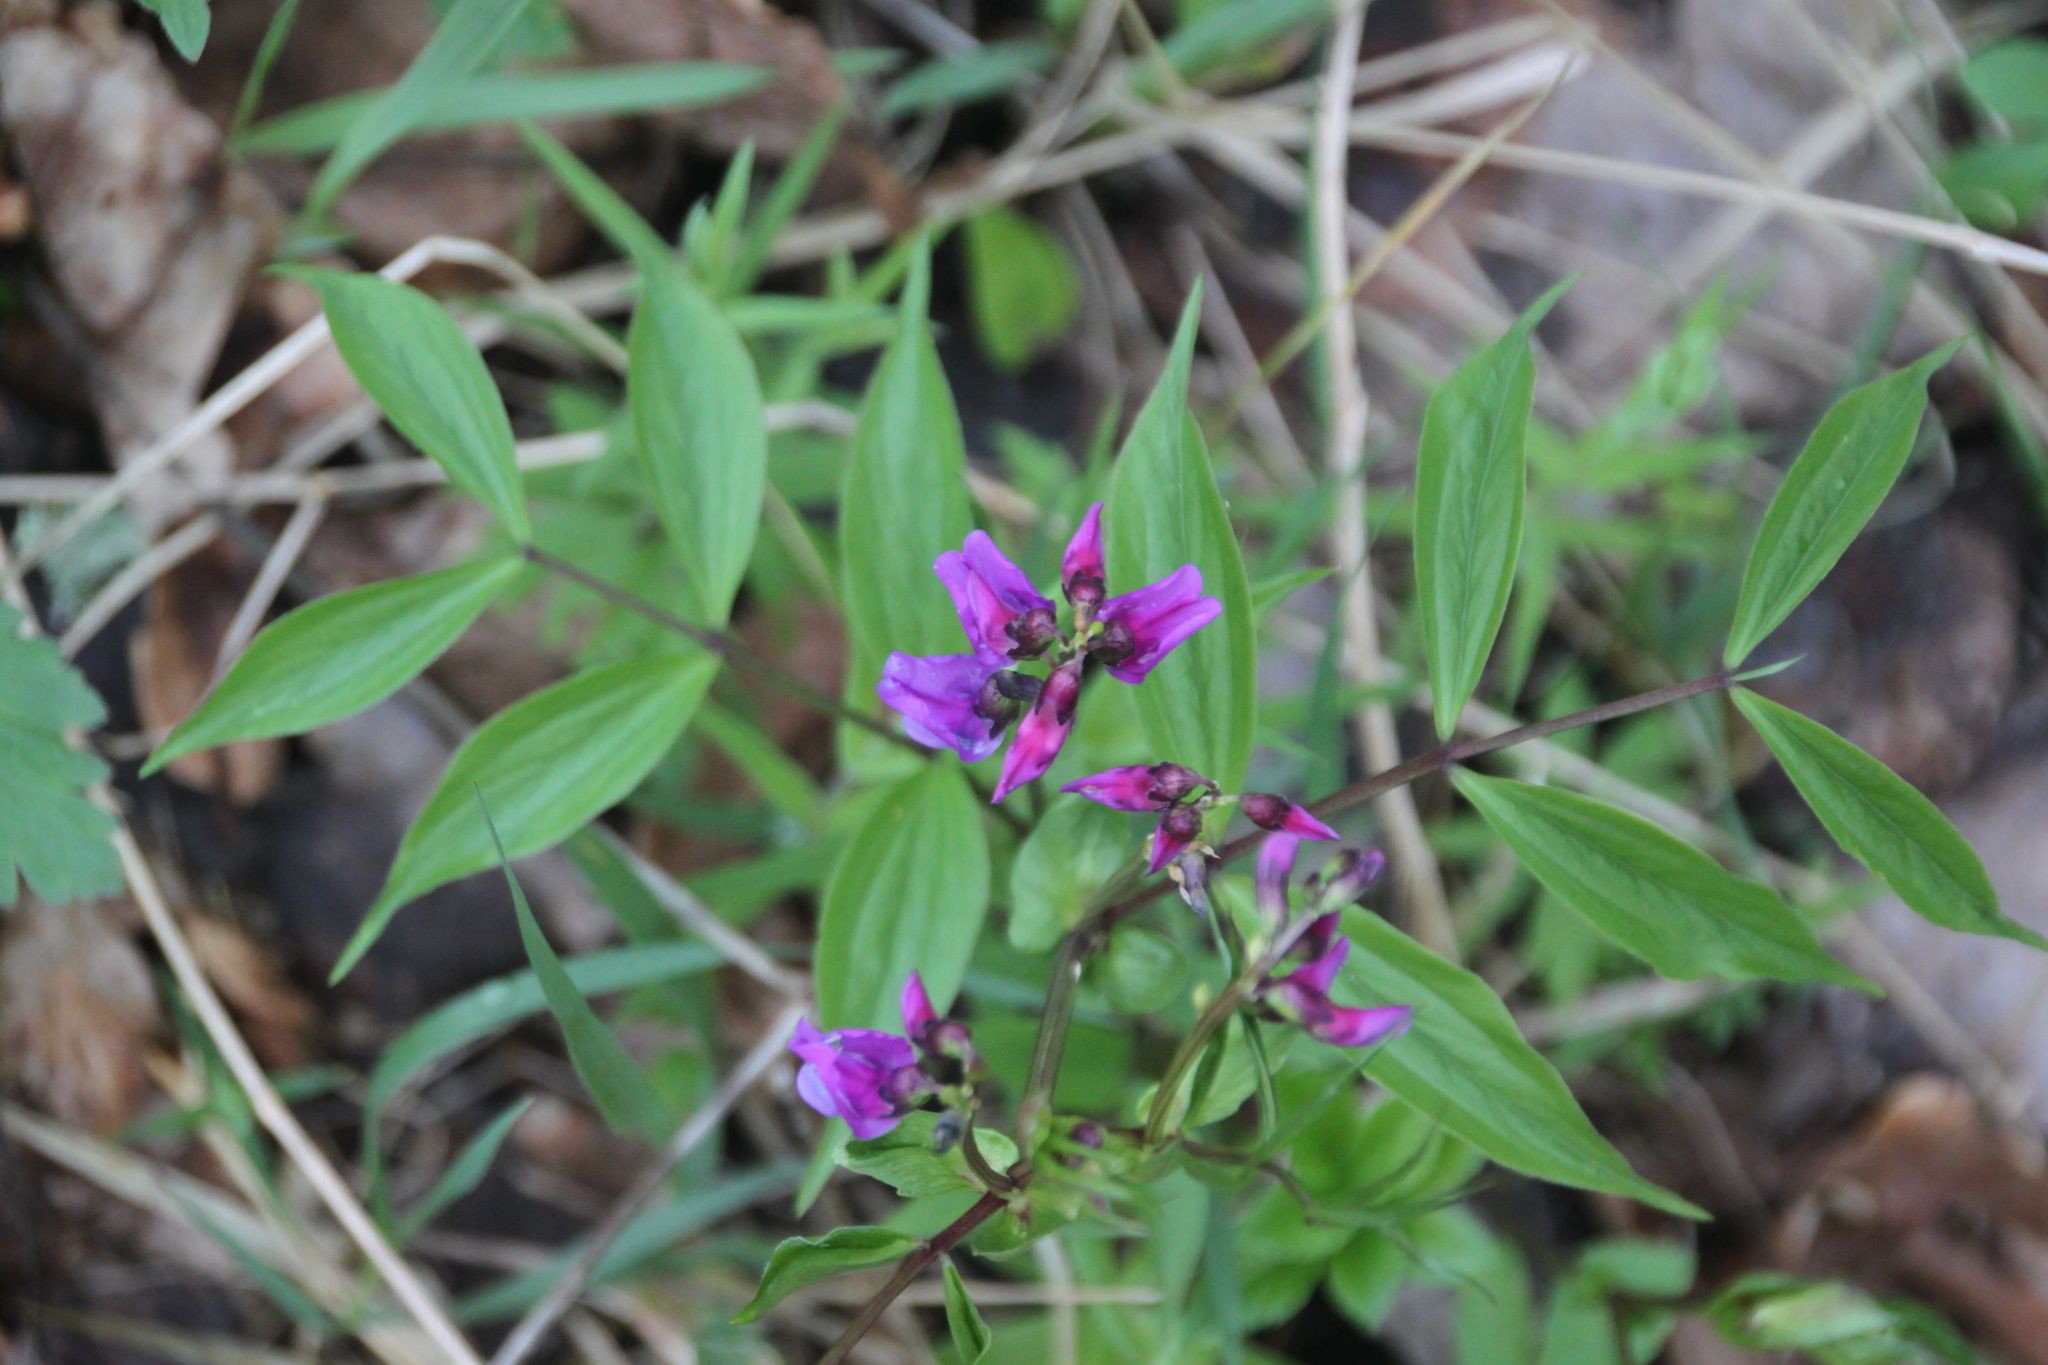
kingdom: Plantae
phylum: Tracheophyta
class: Magnoliopsida
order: Fabales
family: Fabaceae
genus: Lathyrus
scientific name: Lathyrus vernus
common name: Spring pea
